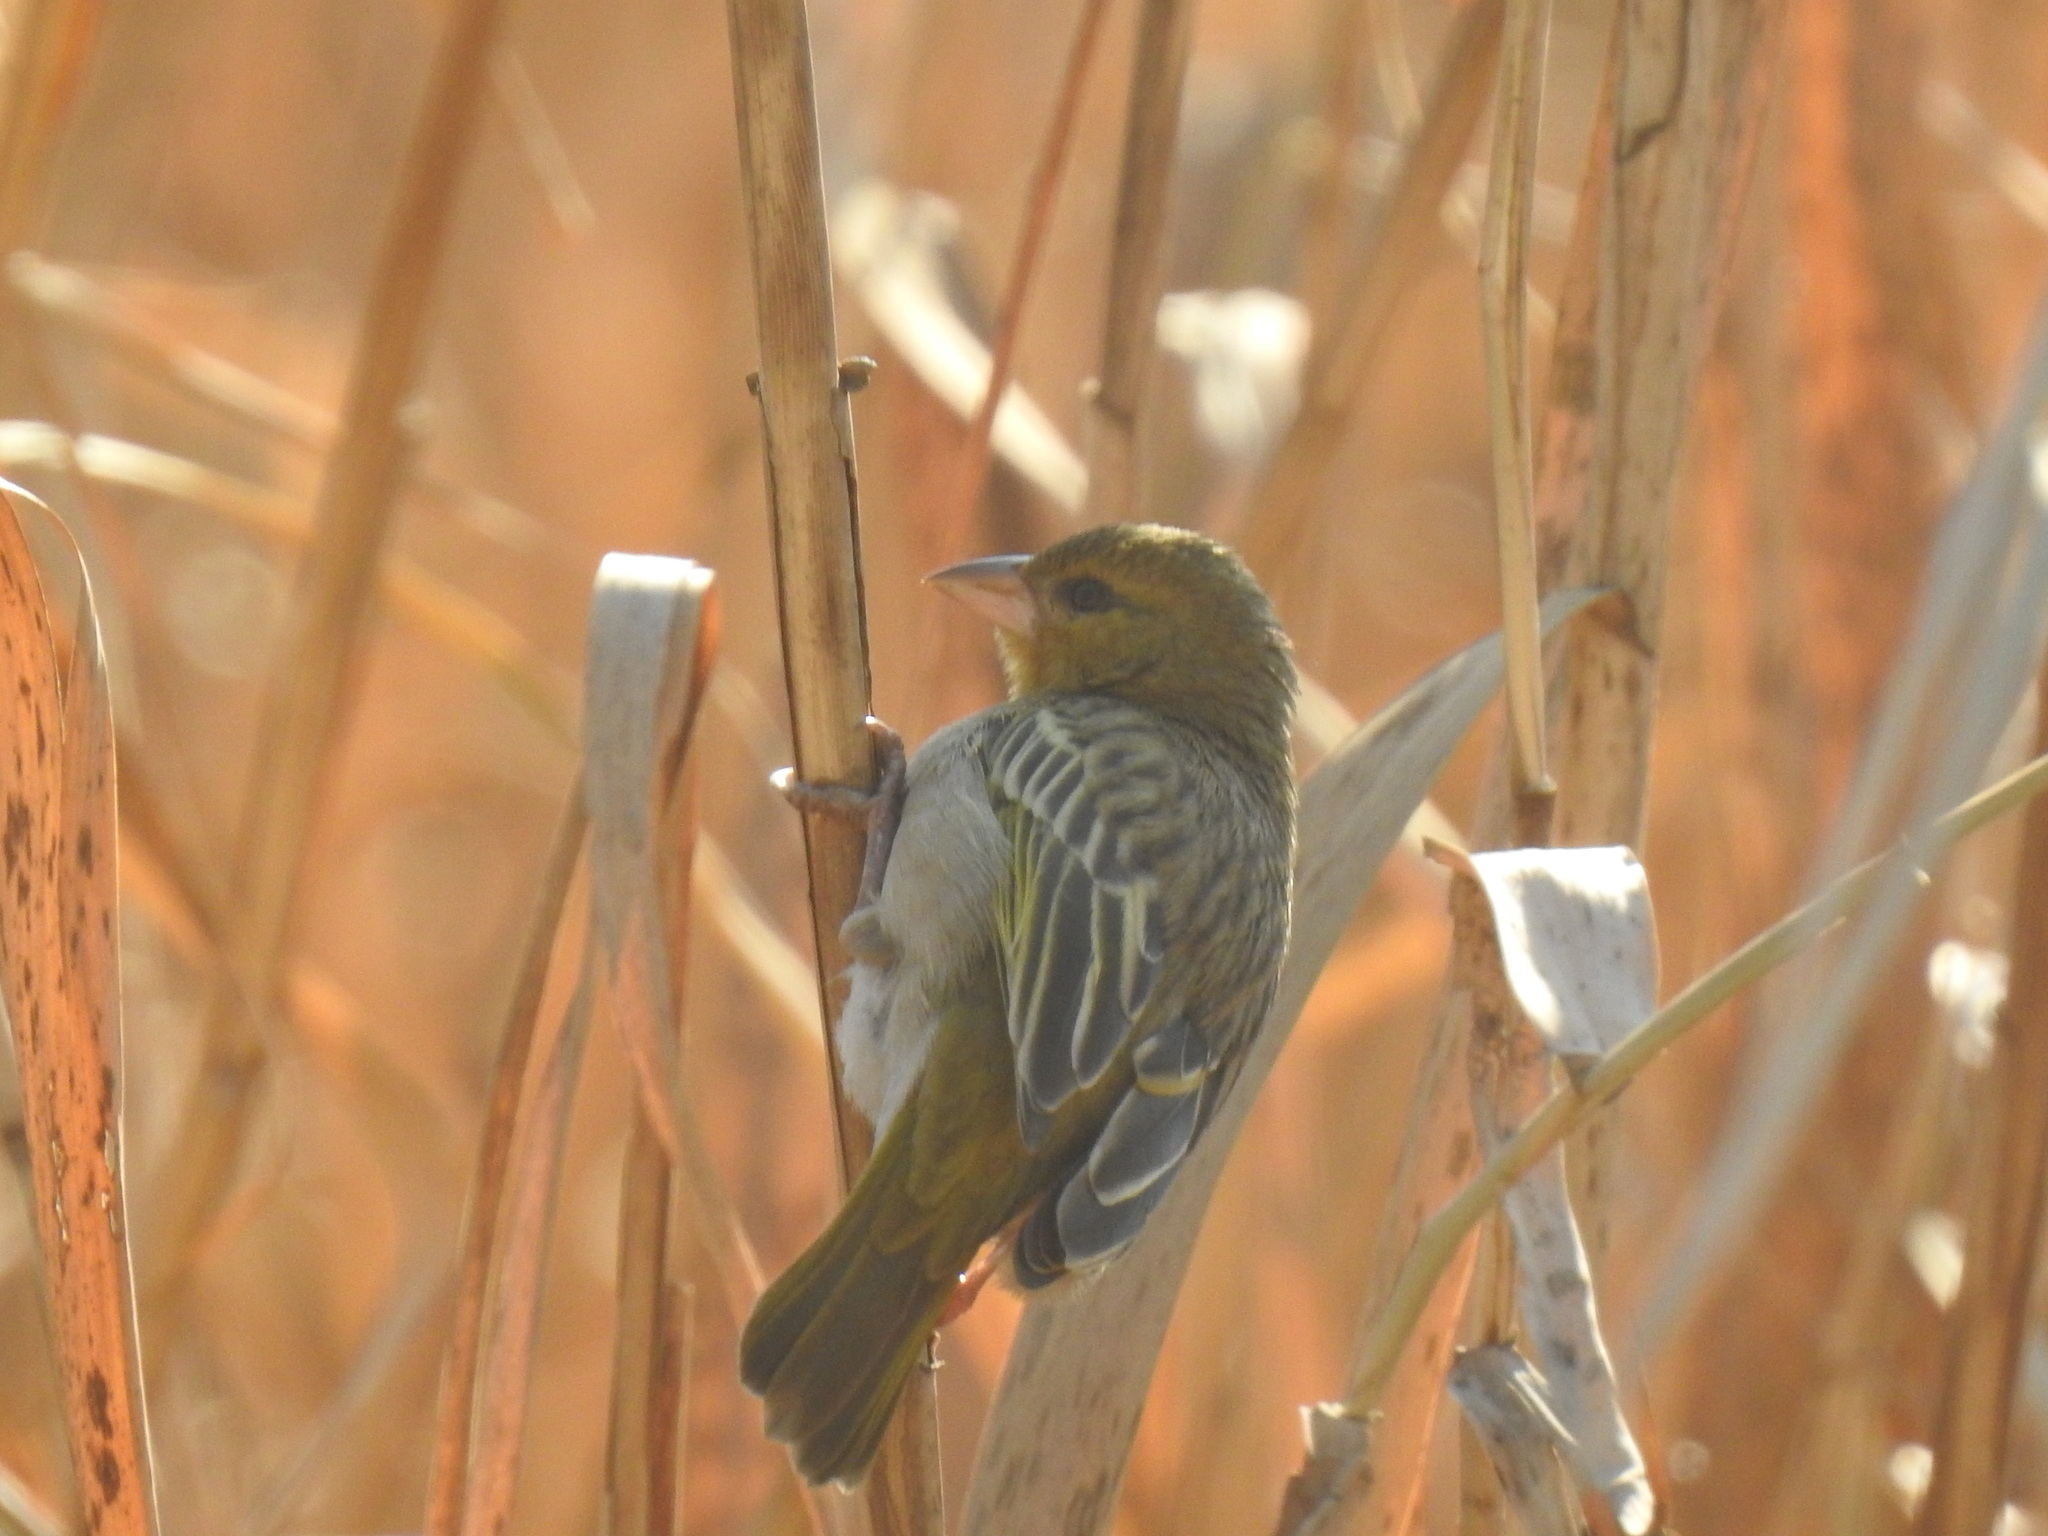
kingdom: Animalia
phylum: Chordata
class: Aves
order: Passeriformes
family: Ploceidae
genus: Ploceus
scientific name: Ploceus velatus
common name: Southern masked weaver
